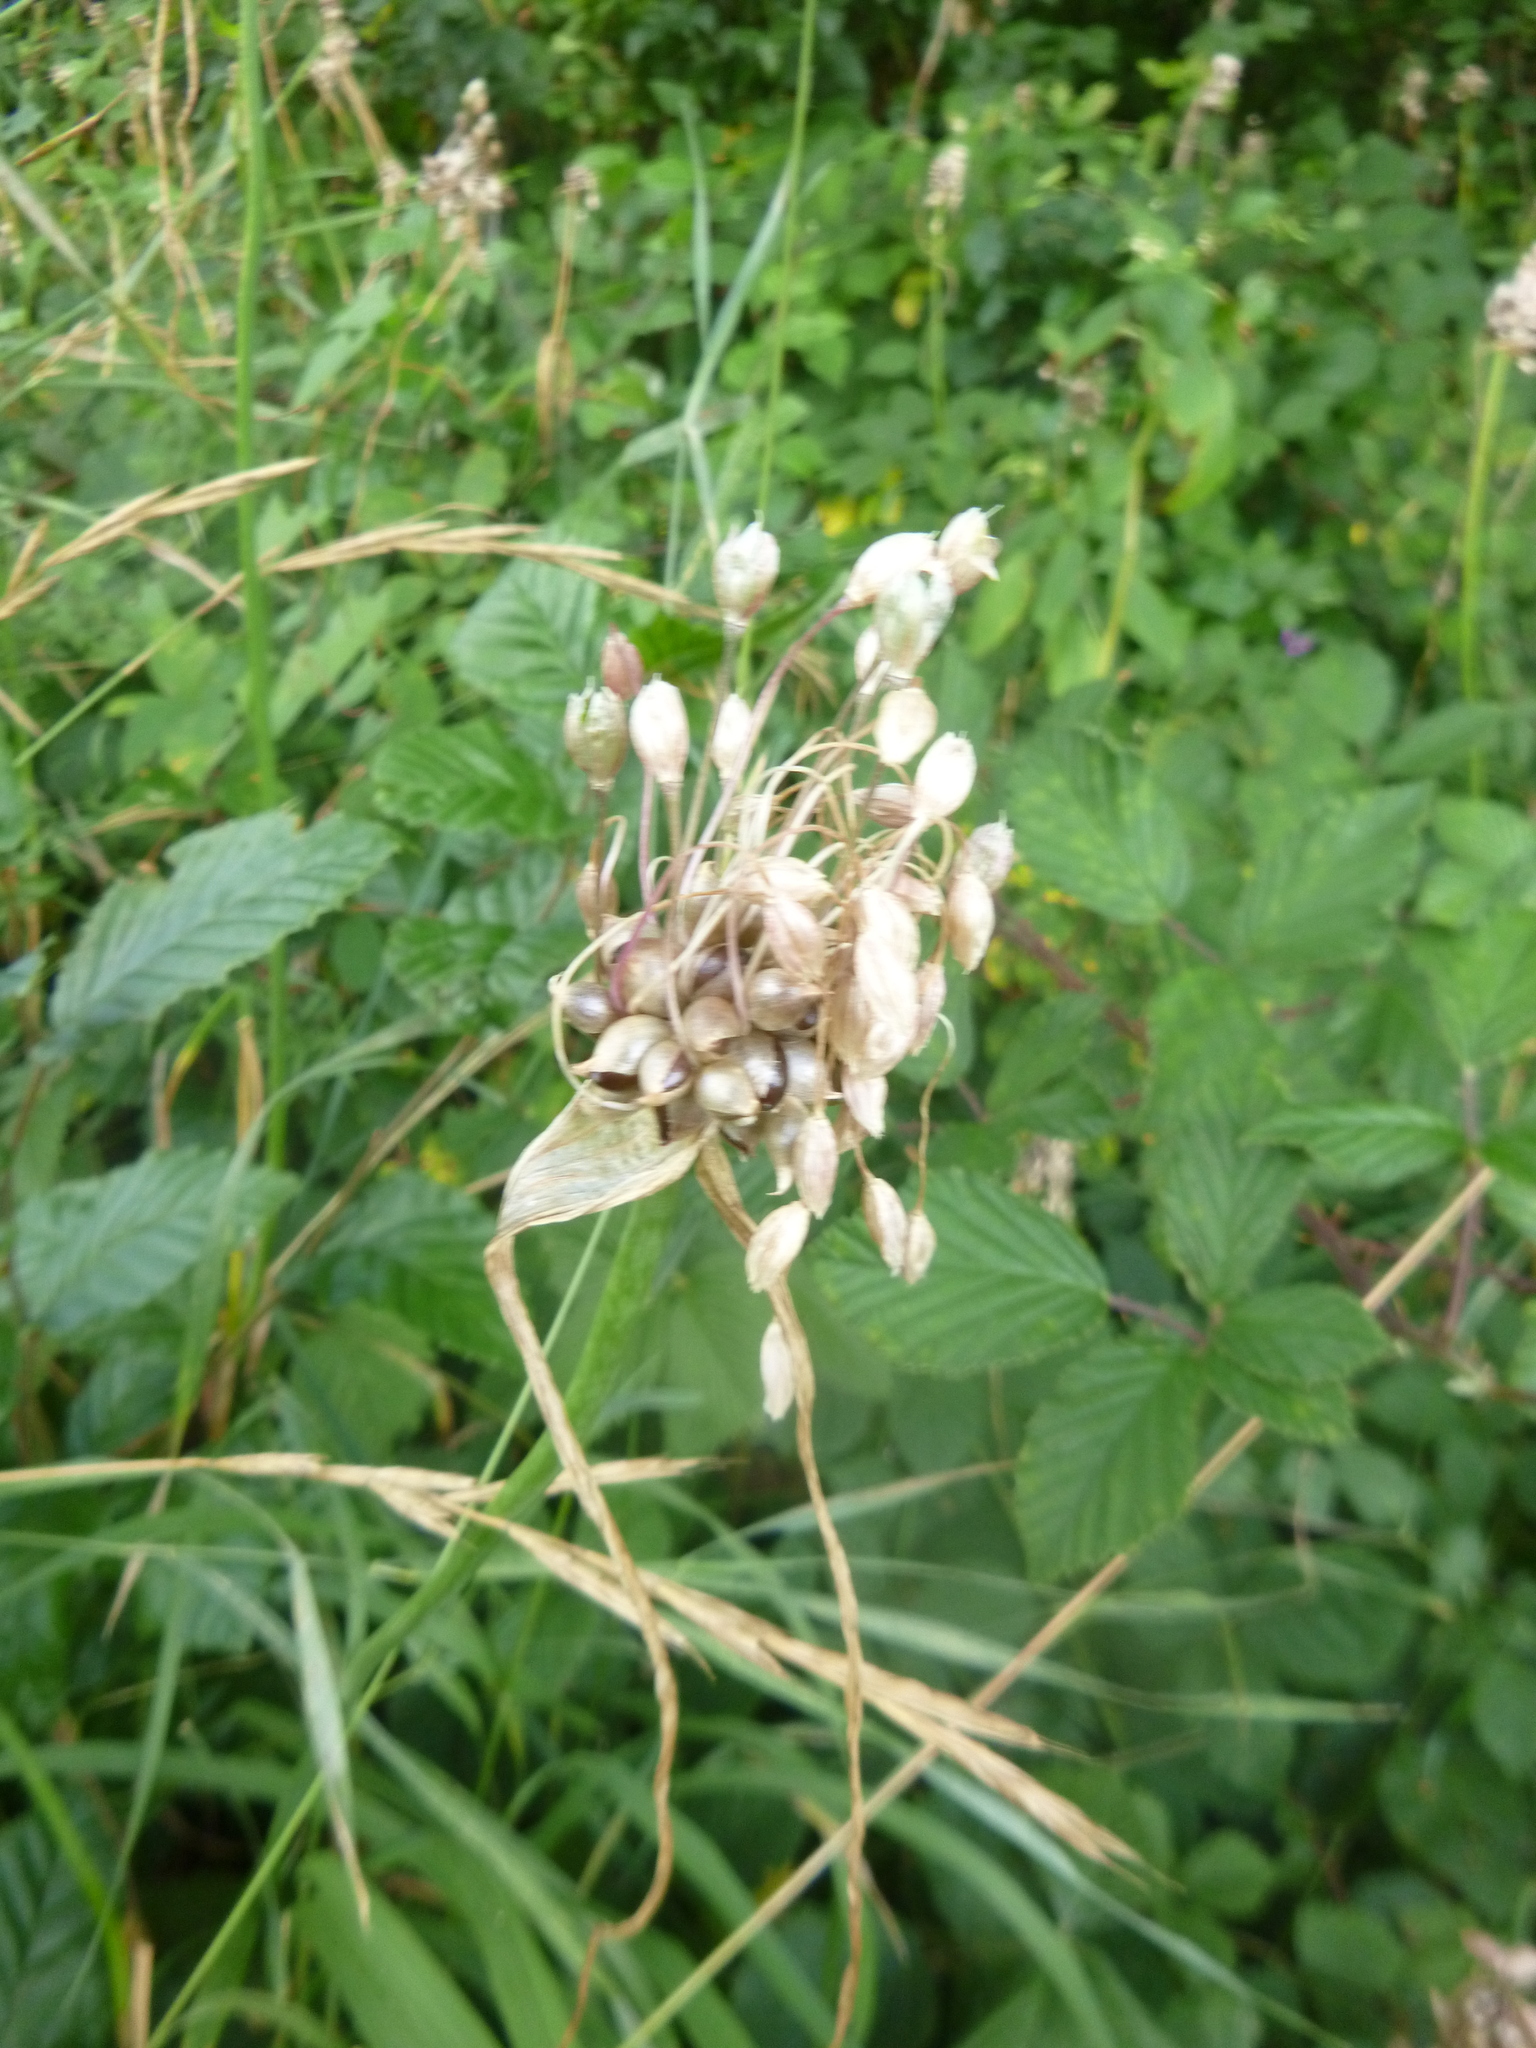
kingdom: Plantae
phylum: Tracheophyta
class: Liliopsida
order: Asparagales
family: Amaryllidaceae
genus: Allium
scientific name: Allium oleraceum
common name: Field garlic
